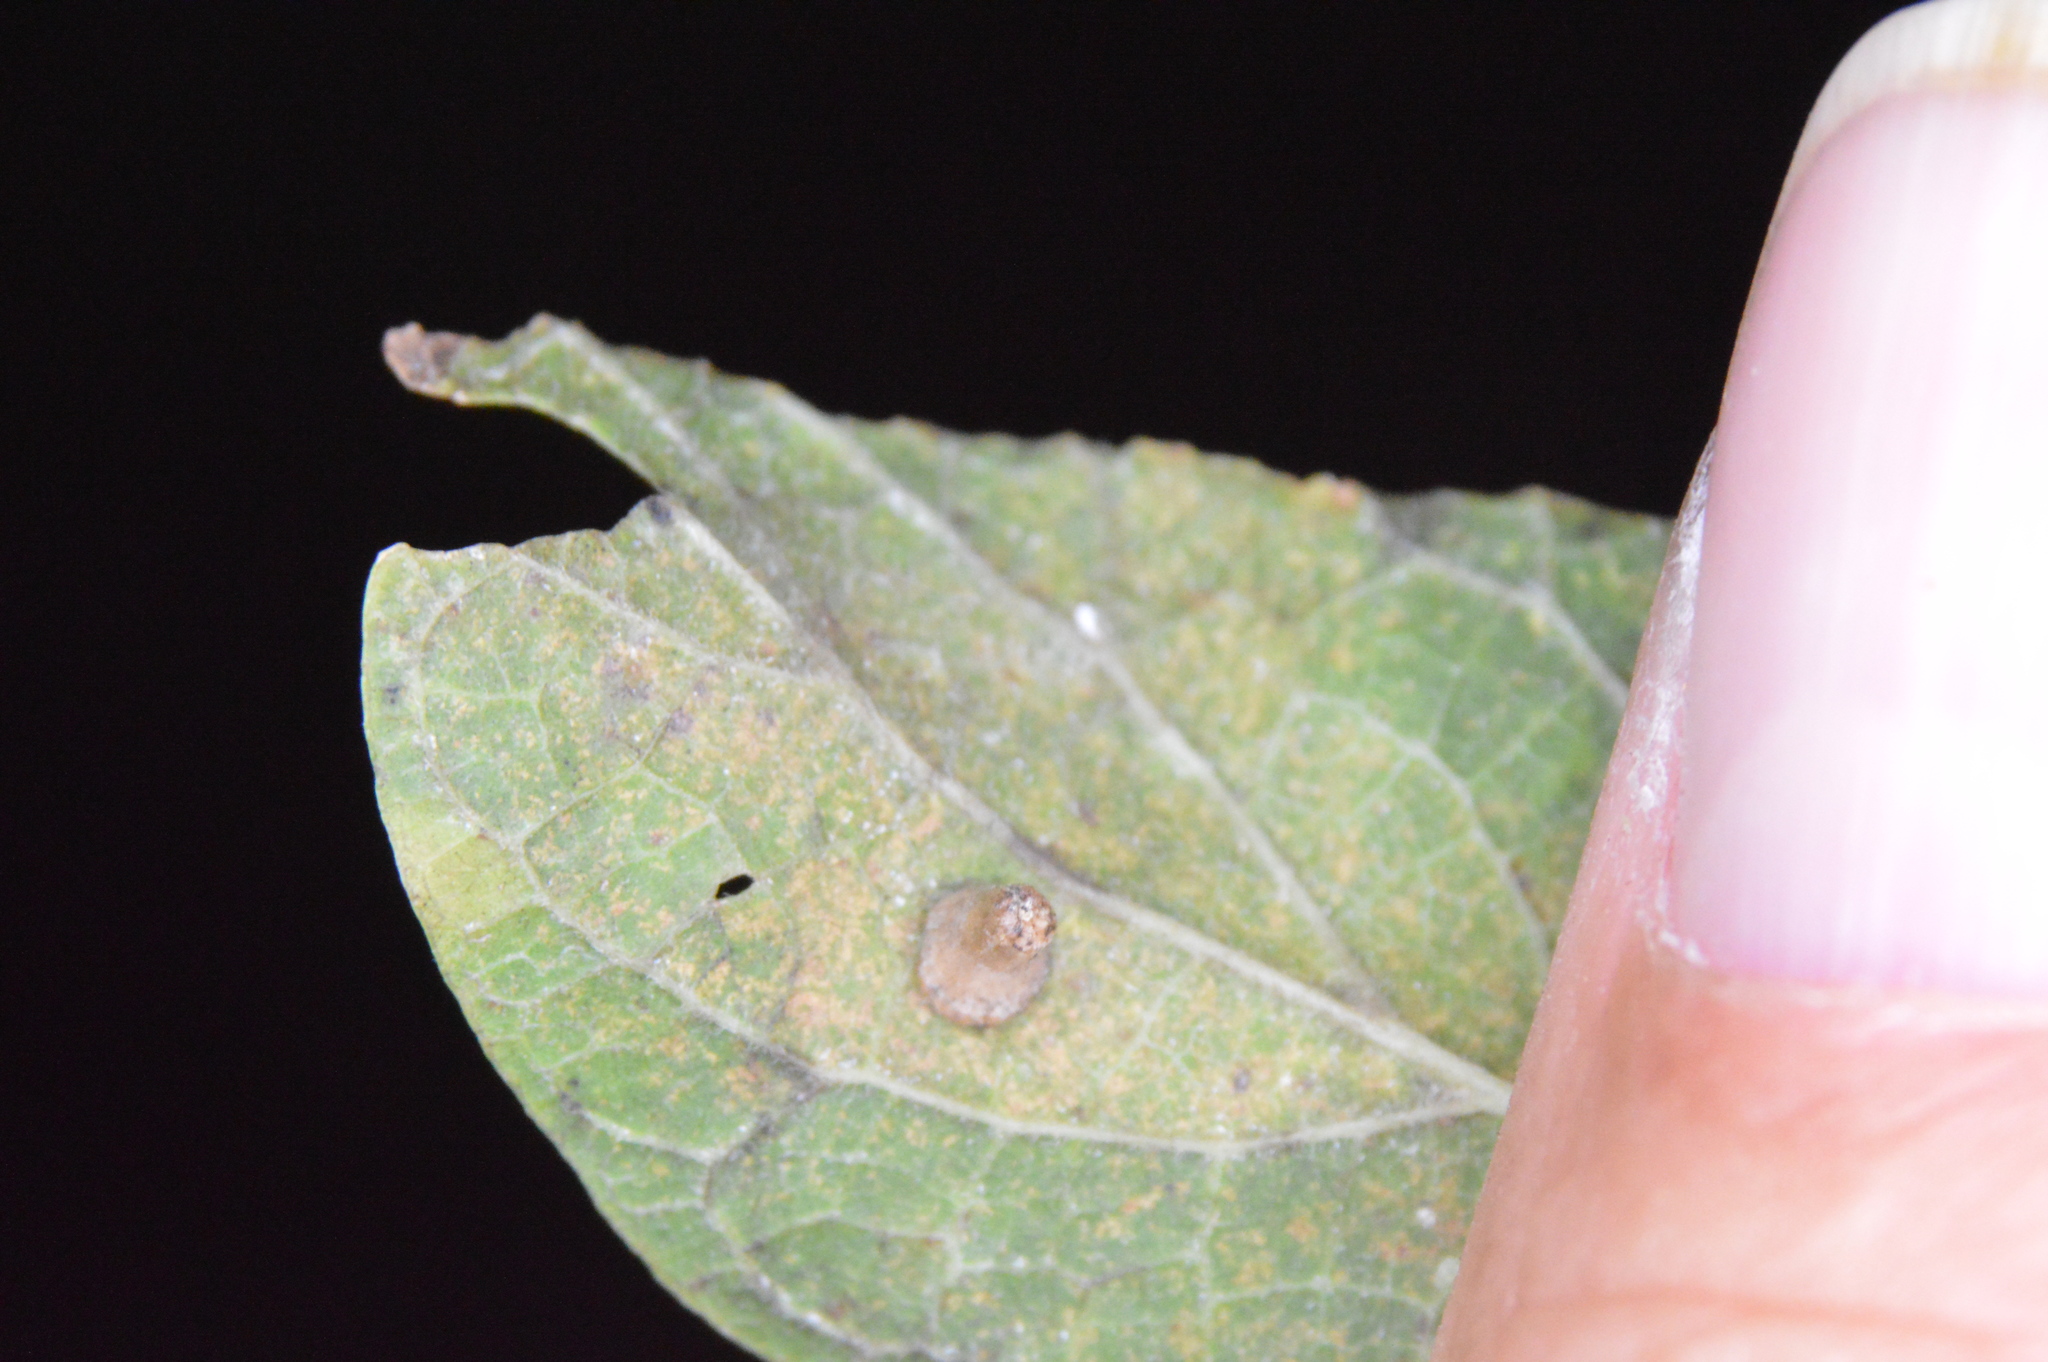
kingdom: Animalia
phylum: Arthropoda
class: Insecta
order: Diptera
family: Cecidomyiidae
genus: Celticecis
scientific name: Celticecis aciculata
